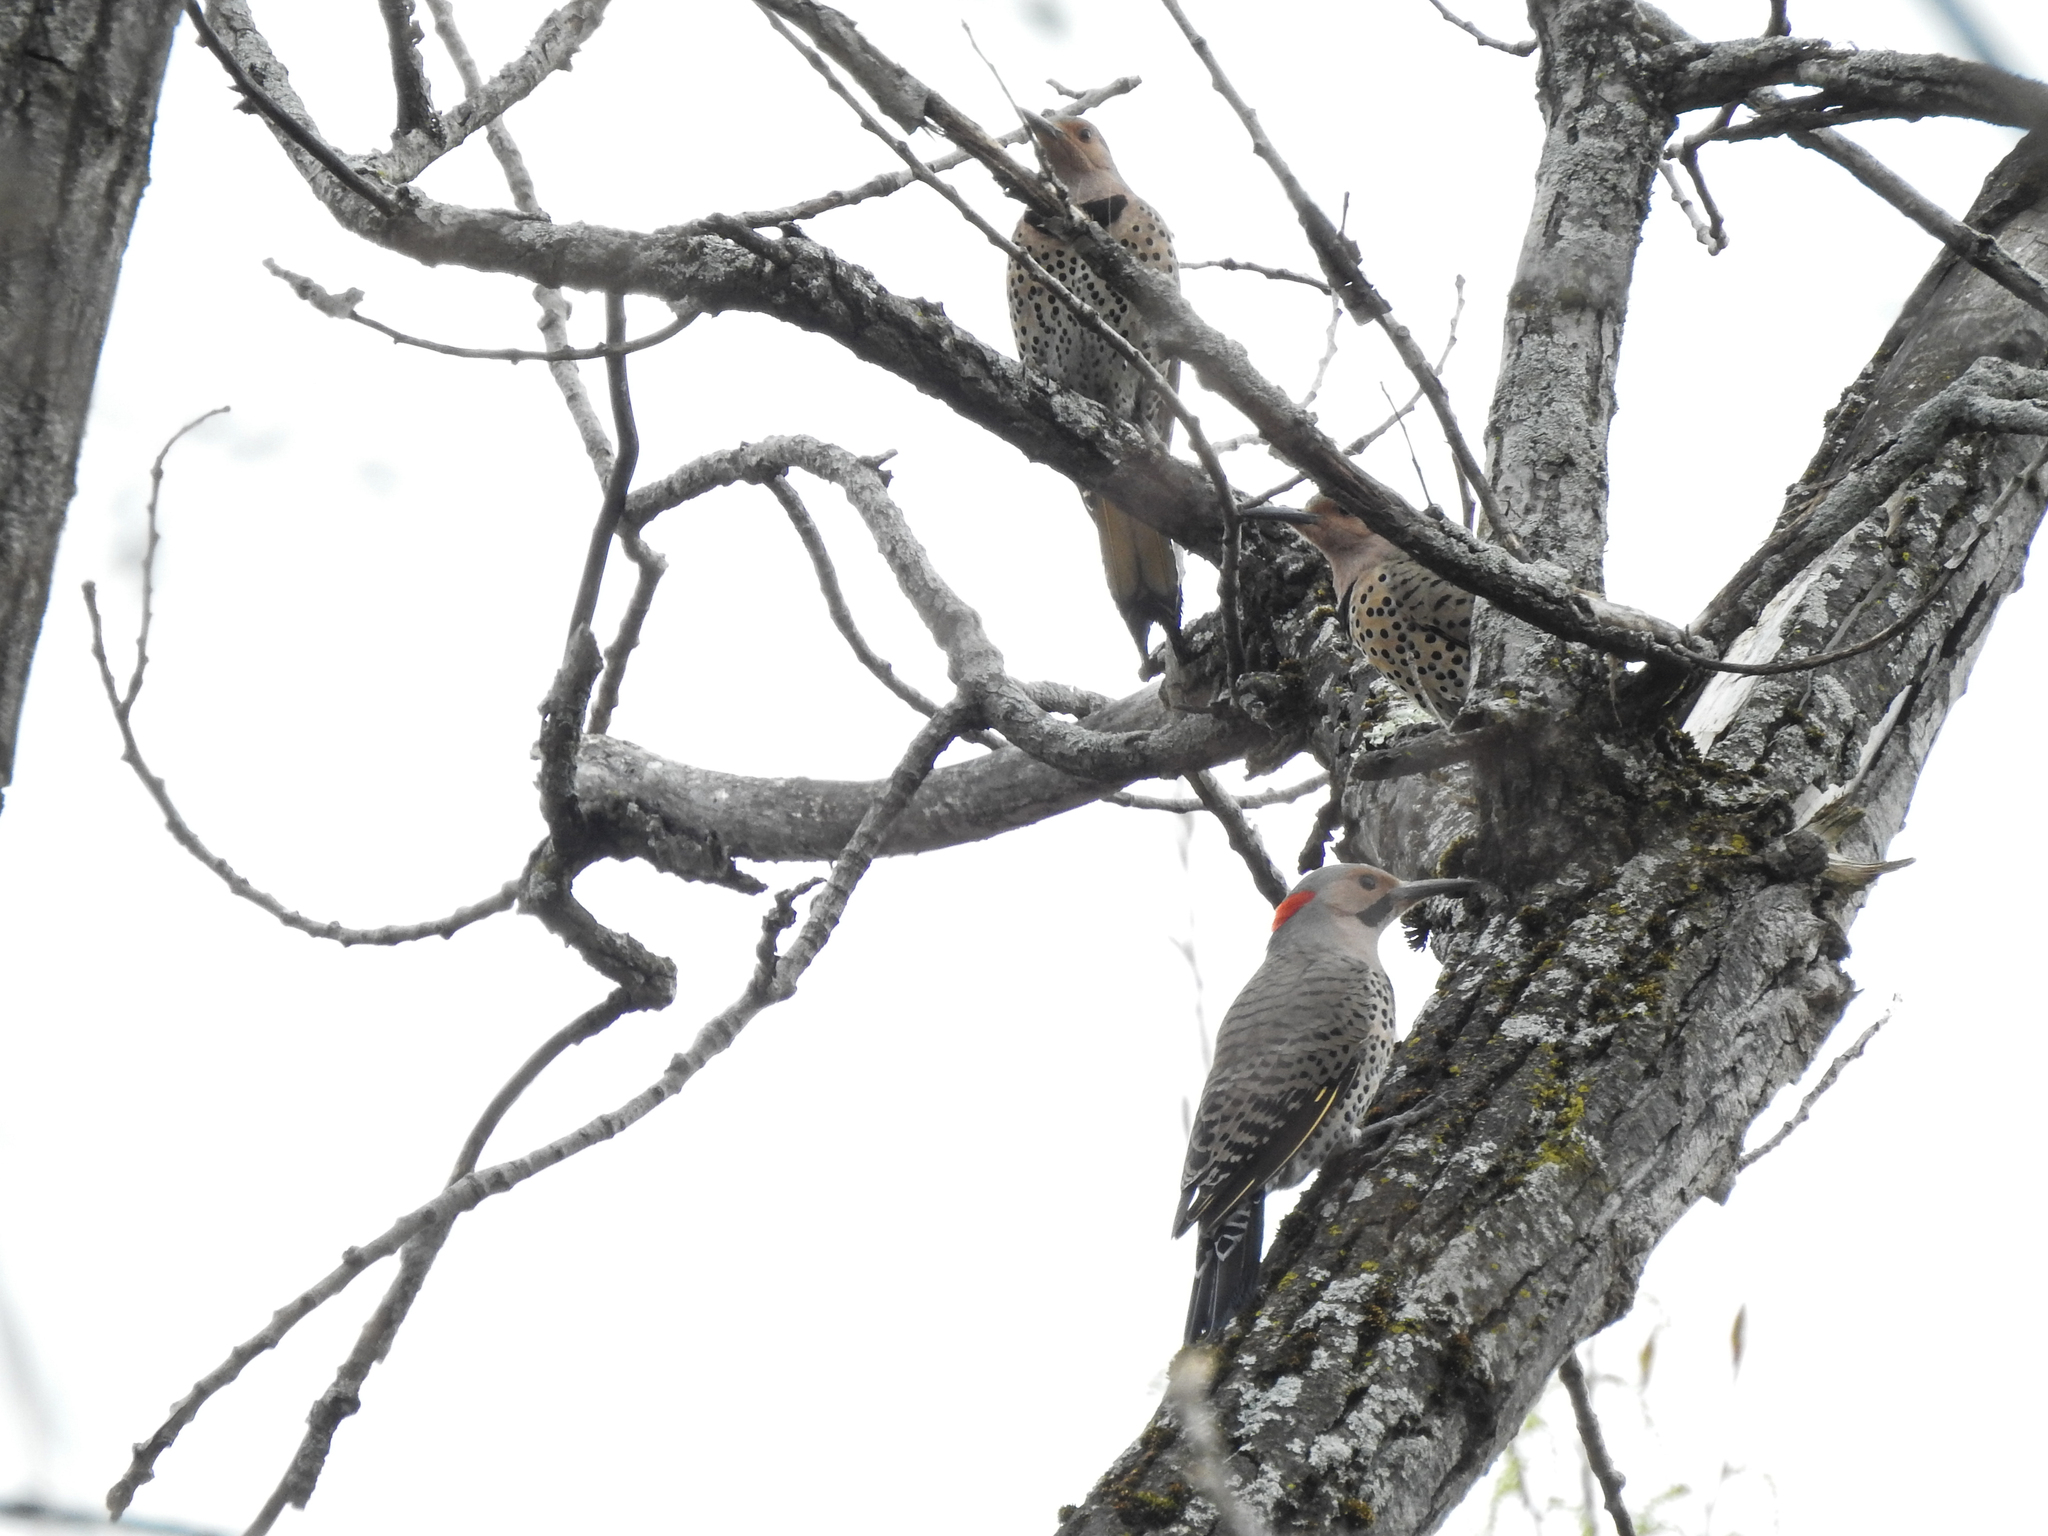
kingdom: Animalia
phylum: Chordata
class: Aves
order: Piciformes
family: Picidae
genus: Colaptes
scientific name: Colaptes auratus
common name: Northern flicker
